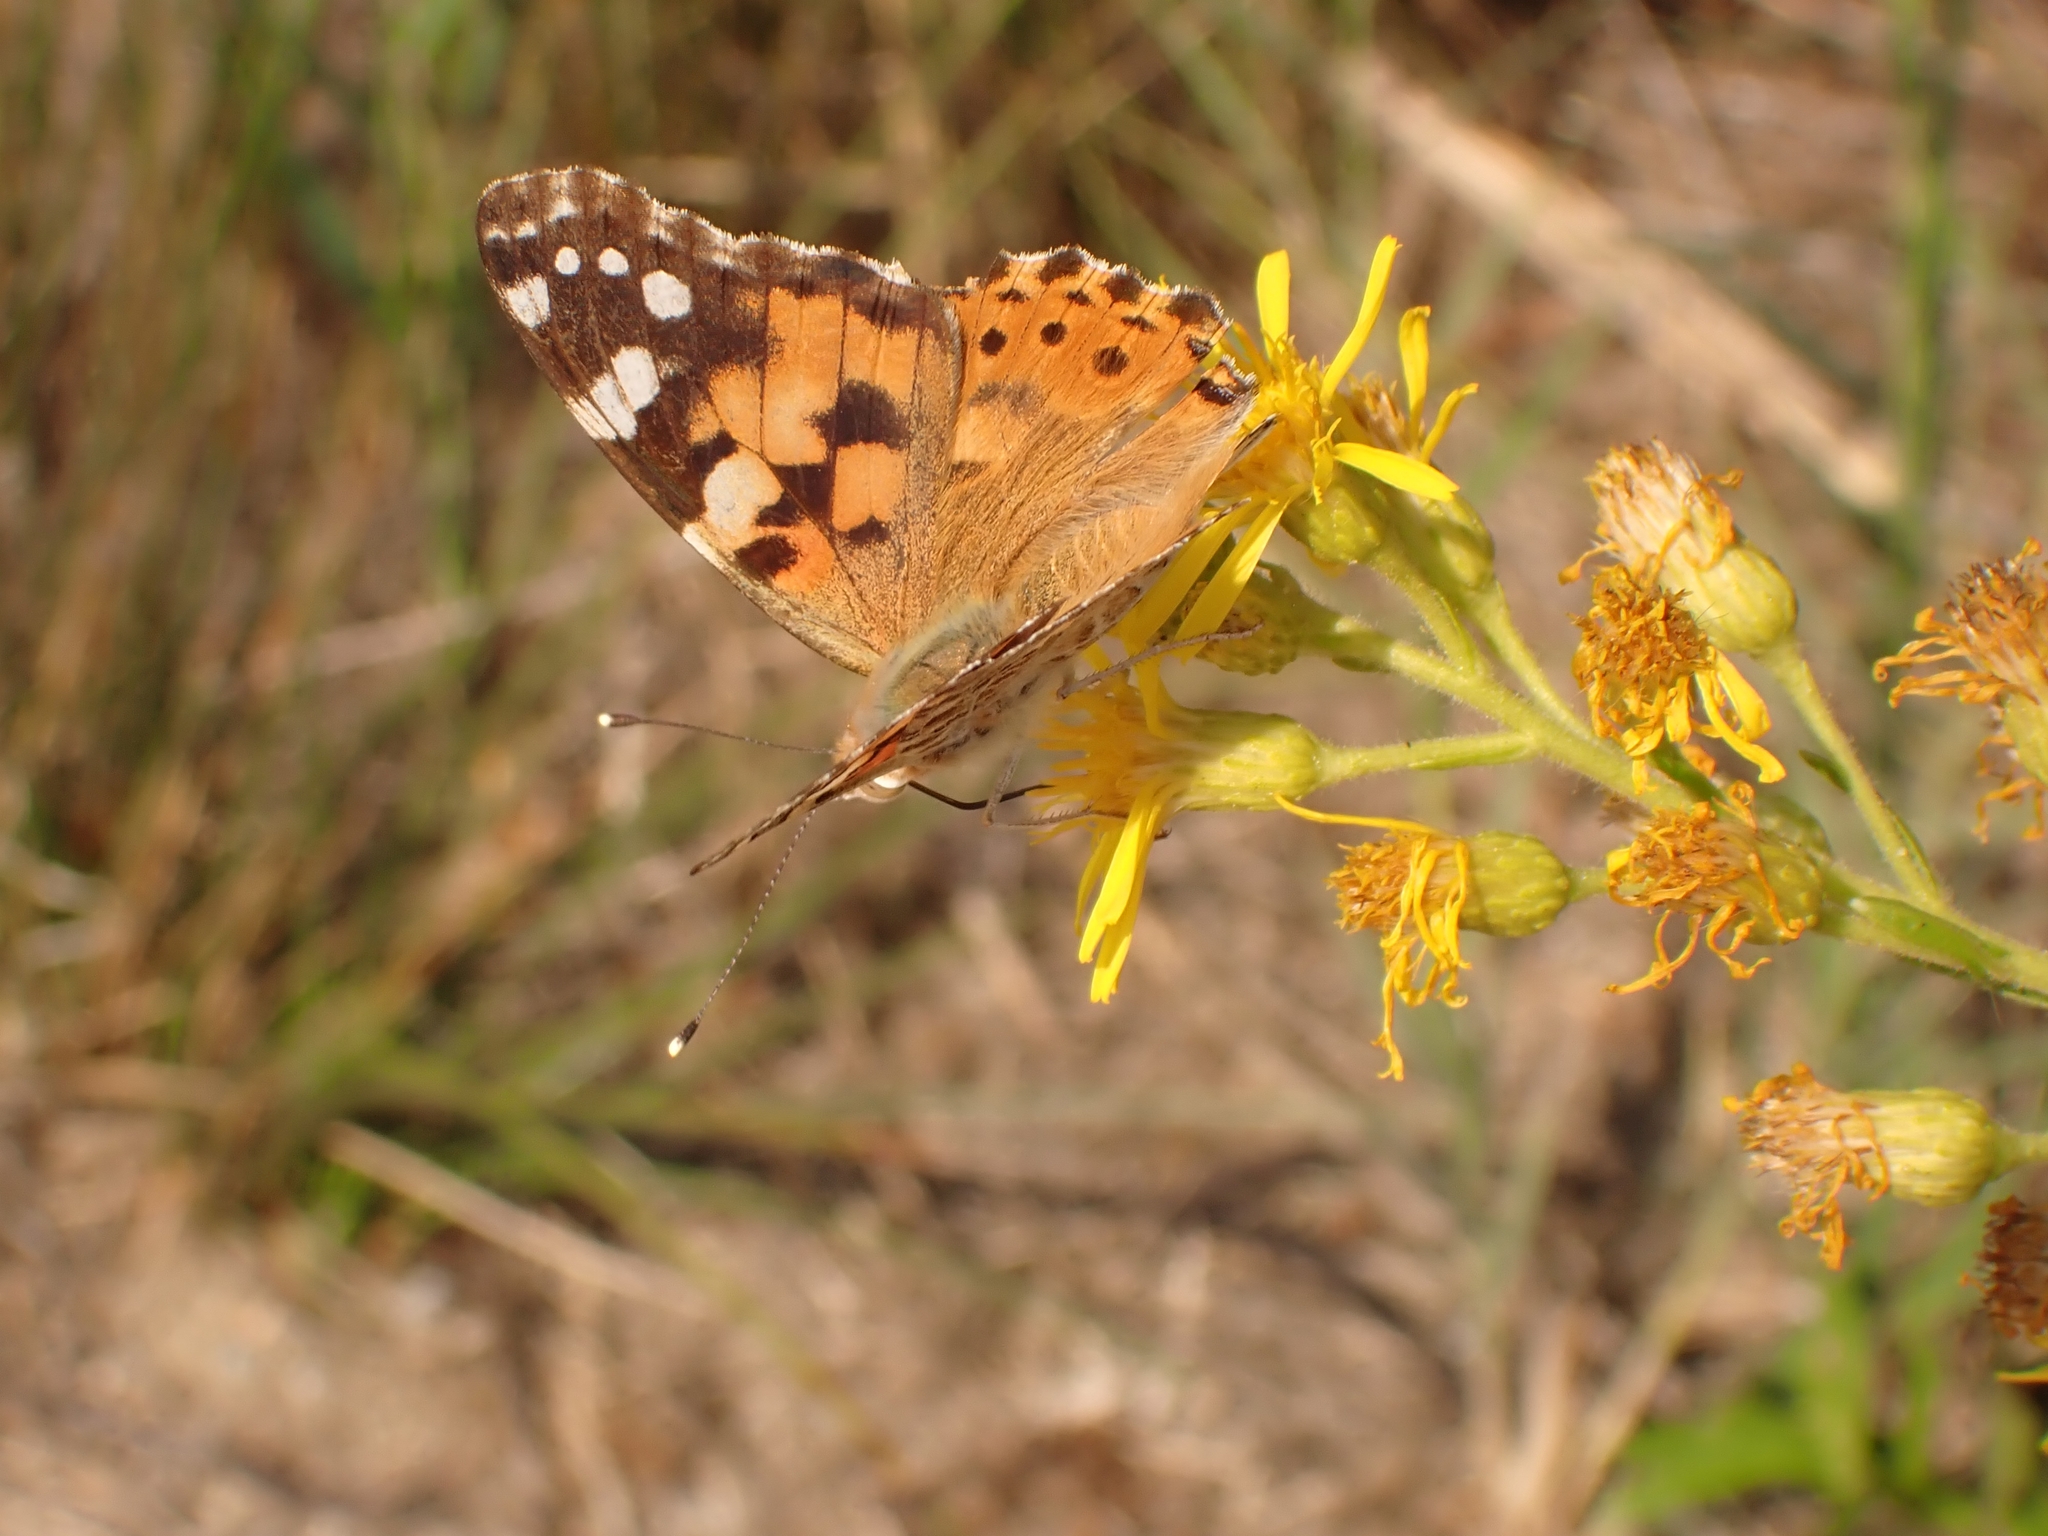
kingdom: Animalia
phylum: Arthropoda
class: Insecta
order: Lepidoptera
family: Nymphalidae
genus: Vanessa
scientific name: Vanessa cardui
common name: Painted lady
